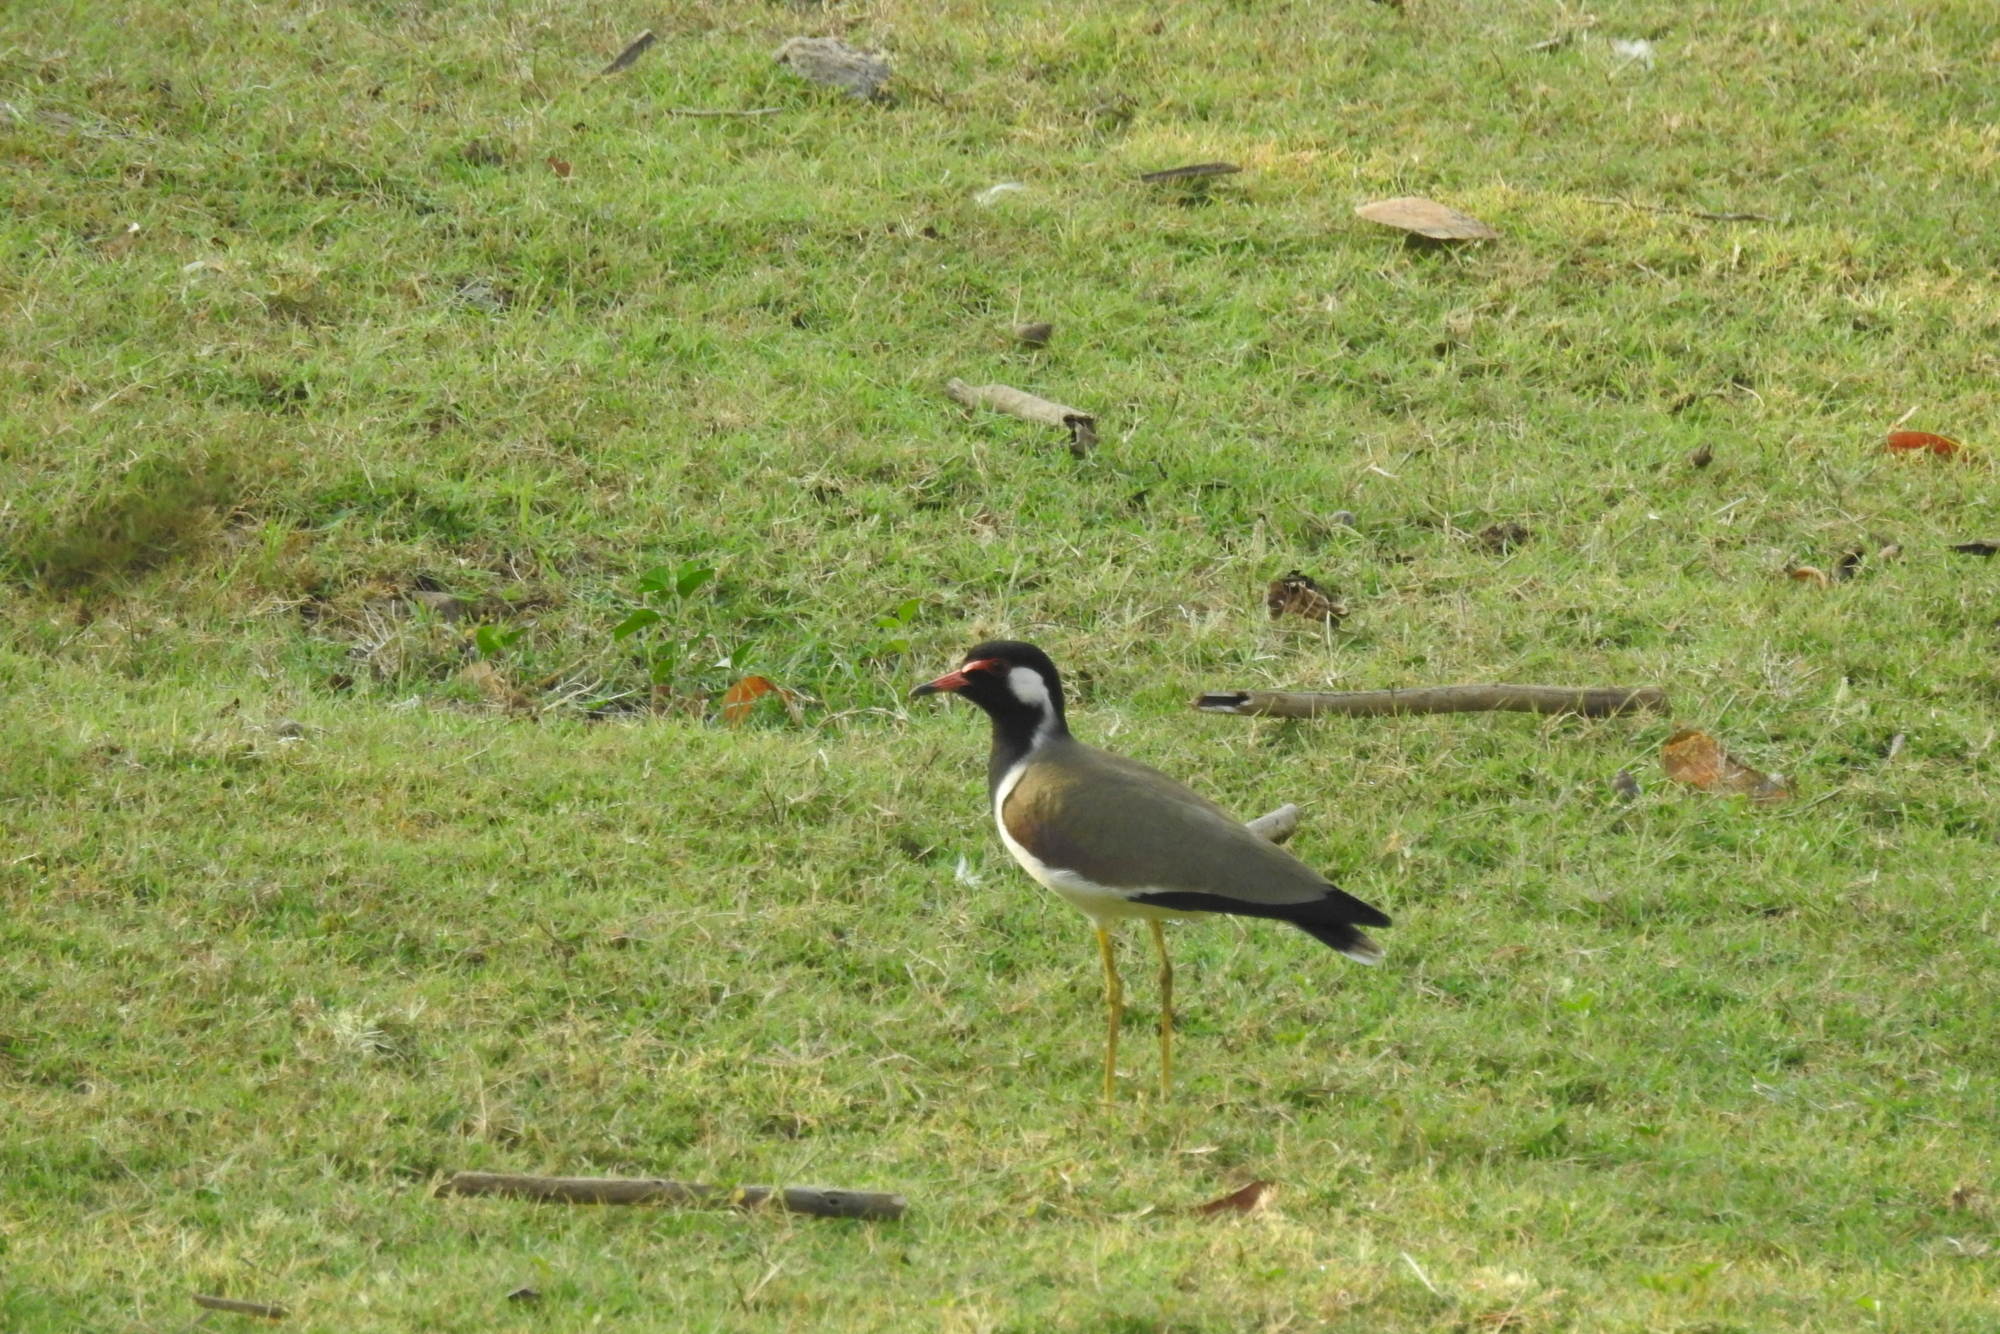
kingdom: Animalia
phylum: Chordata
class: Aves
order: Charadriiformes
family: Charadriidae
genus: Vanellus
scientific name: Vanellus indicus
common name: Red-wattled lapwing
